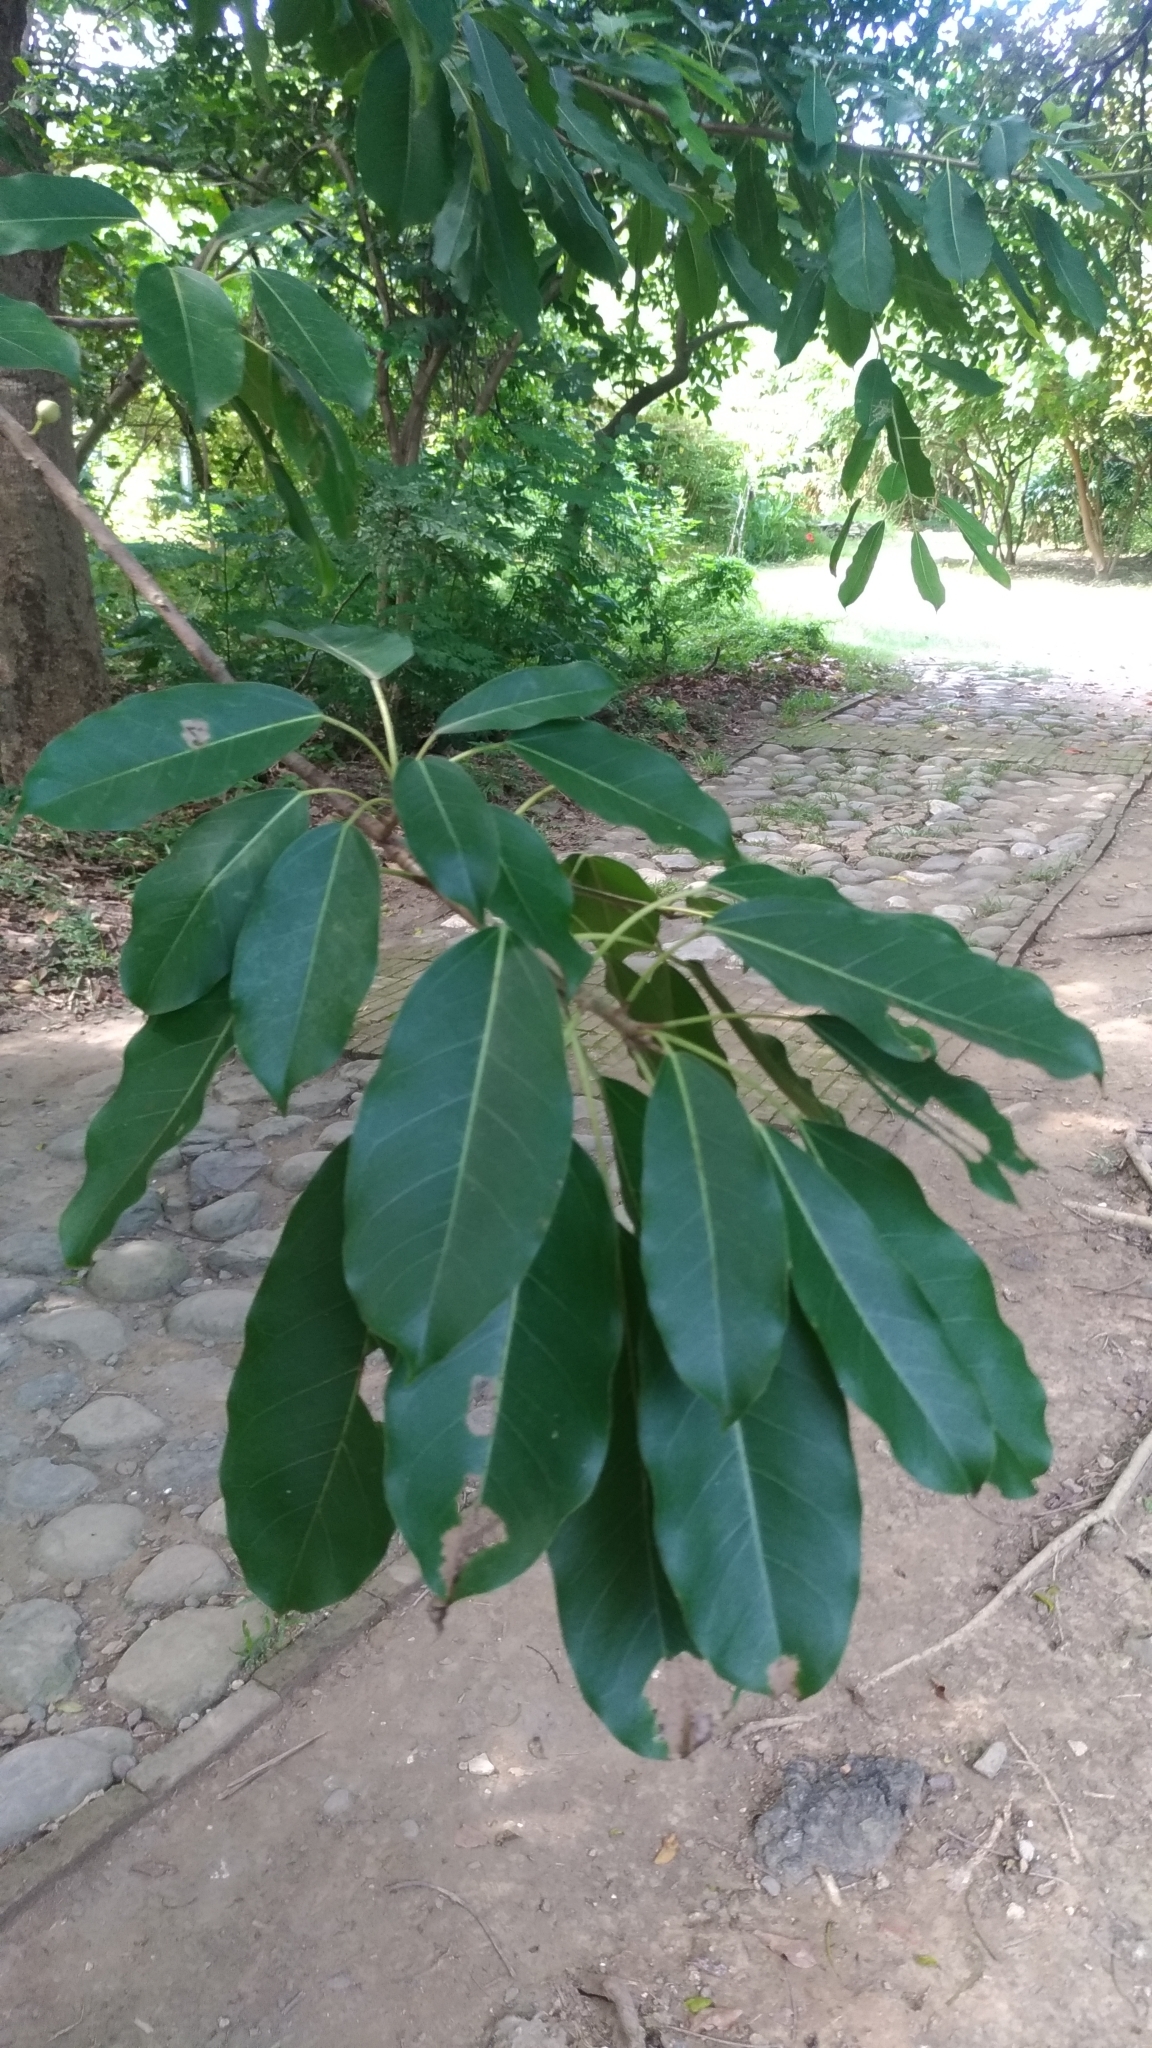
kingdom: Plantae
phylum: Tracheophyta
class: Magnoliopsida
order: Rosales
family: Moraceae
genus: Ficus
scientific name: Ficus subpisocarpa
